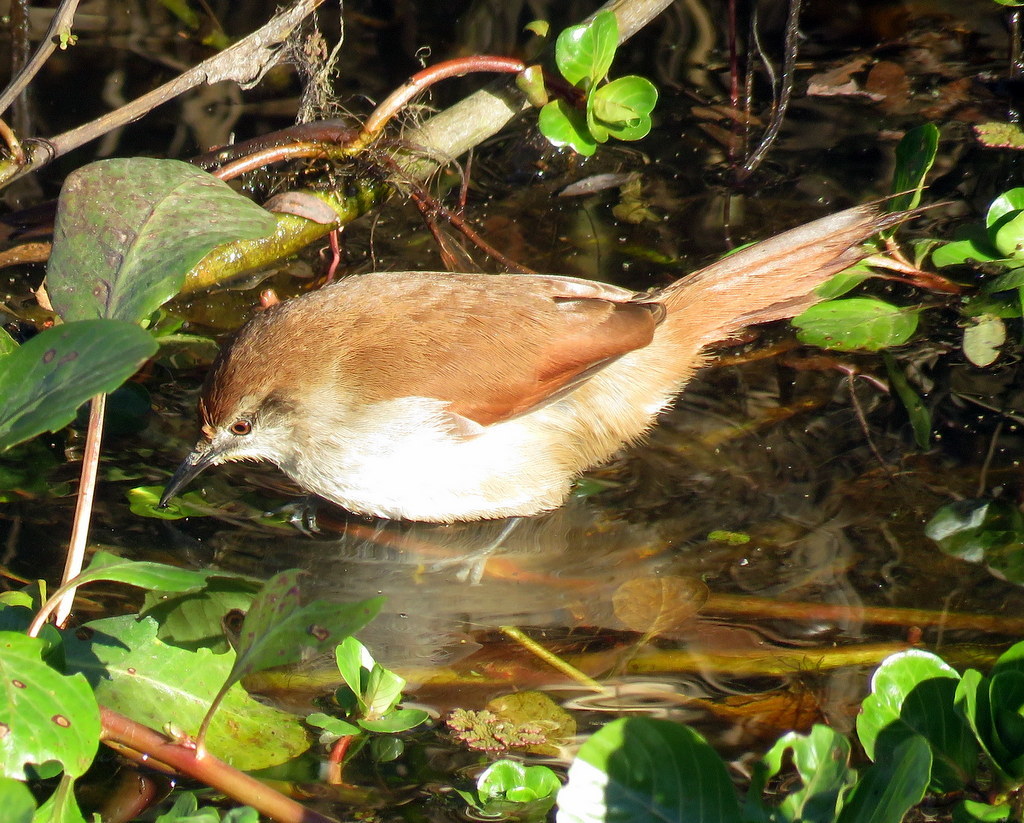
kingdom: Animalia
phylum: Chordata
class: Aves
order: Passeriformes
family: Furnariidae
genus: Certhiaxis
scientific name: Certhiaxis cinnamomeus
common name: Yellow-chinned spinetail
